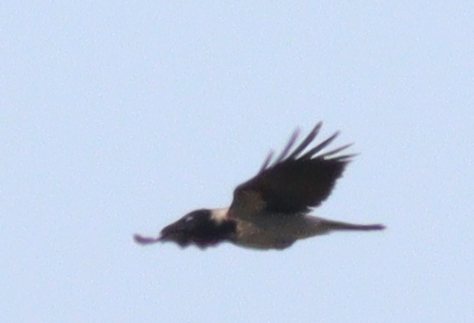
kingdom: Animalia
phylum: Chordata
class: Aves
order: Passeriformes
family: Corvidae
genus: Corvus
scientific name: Corvus cornix
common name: Hooded crow
